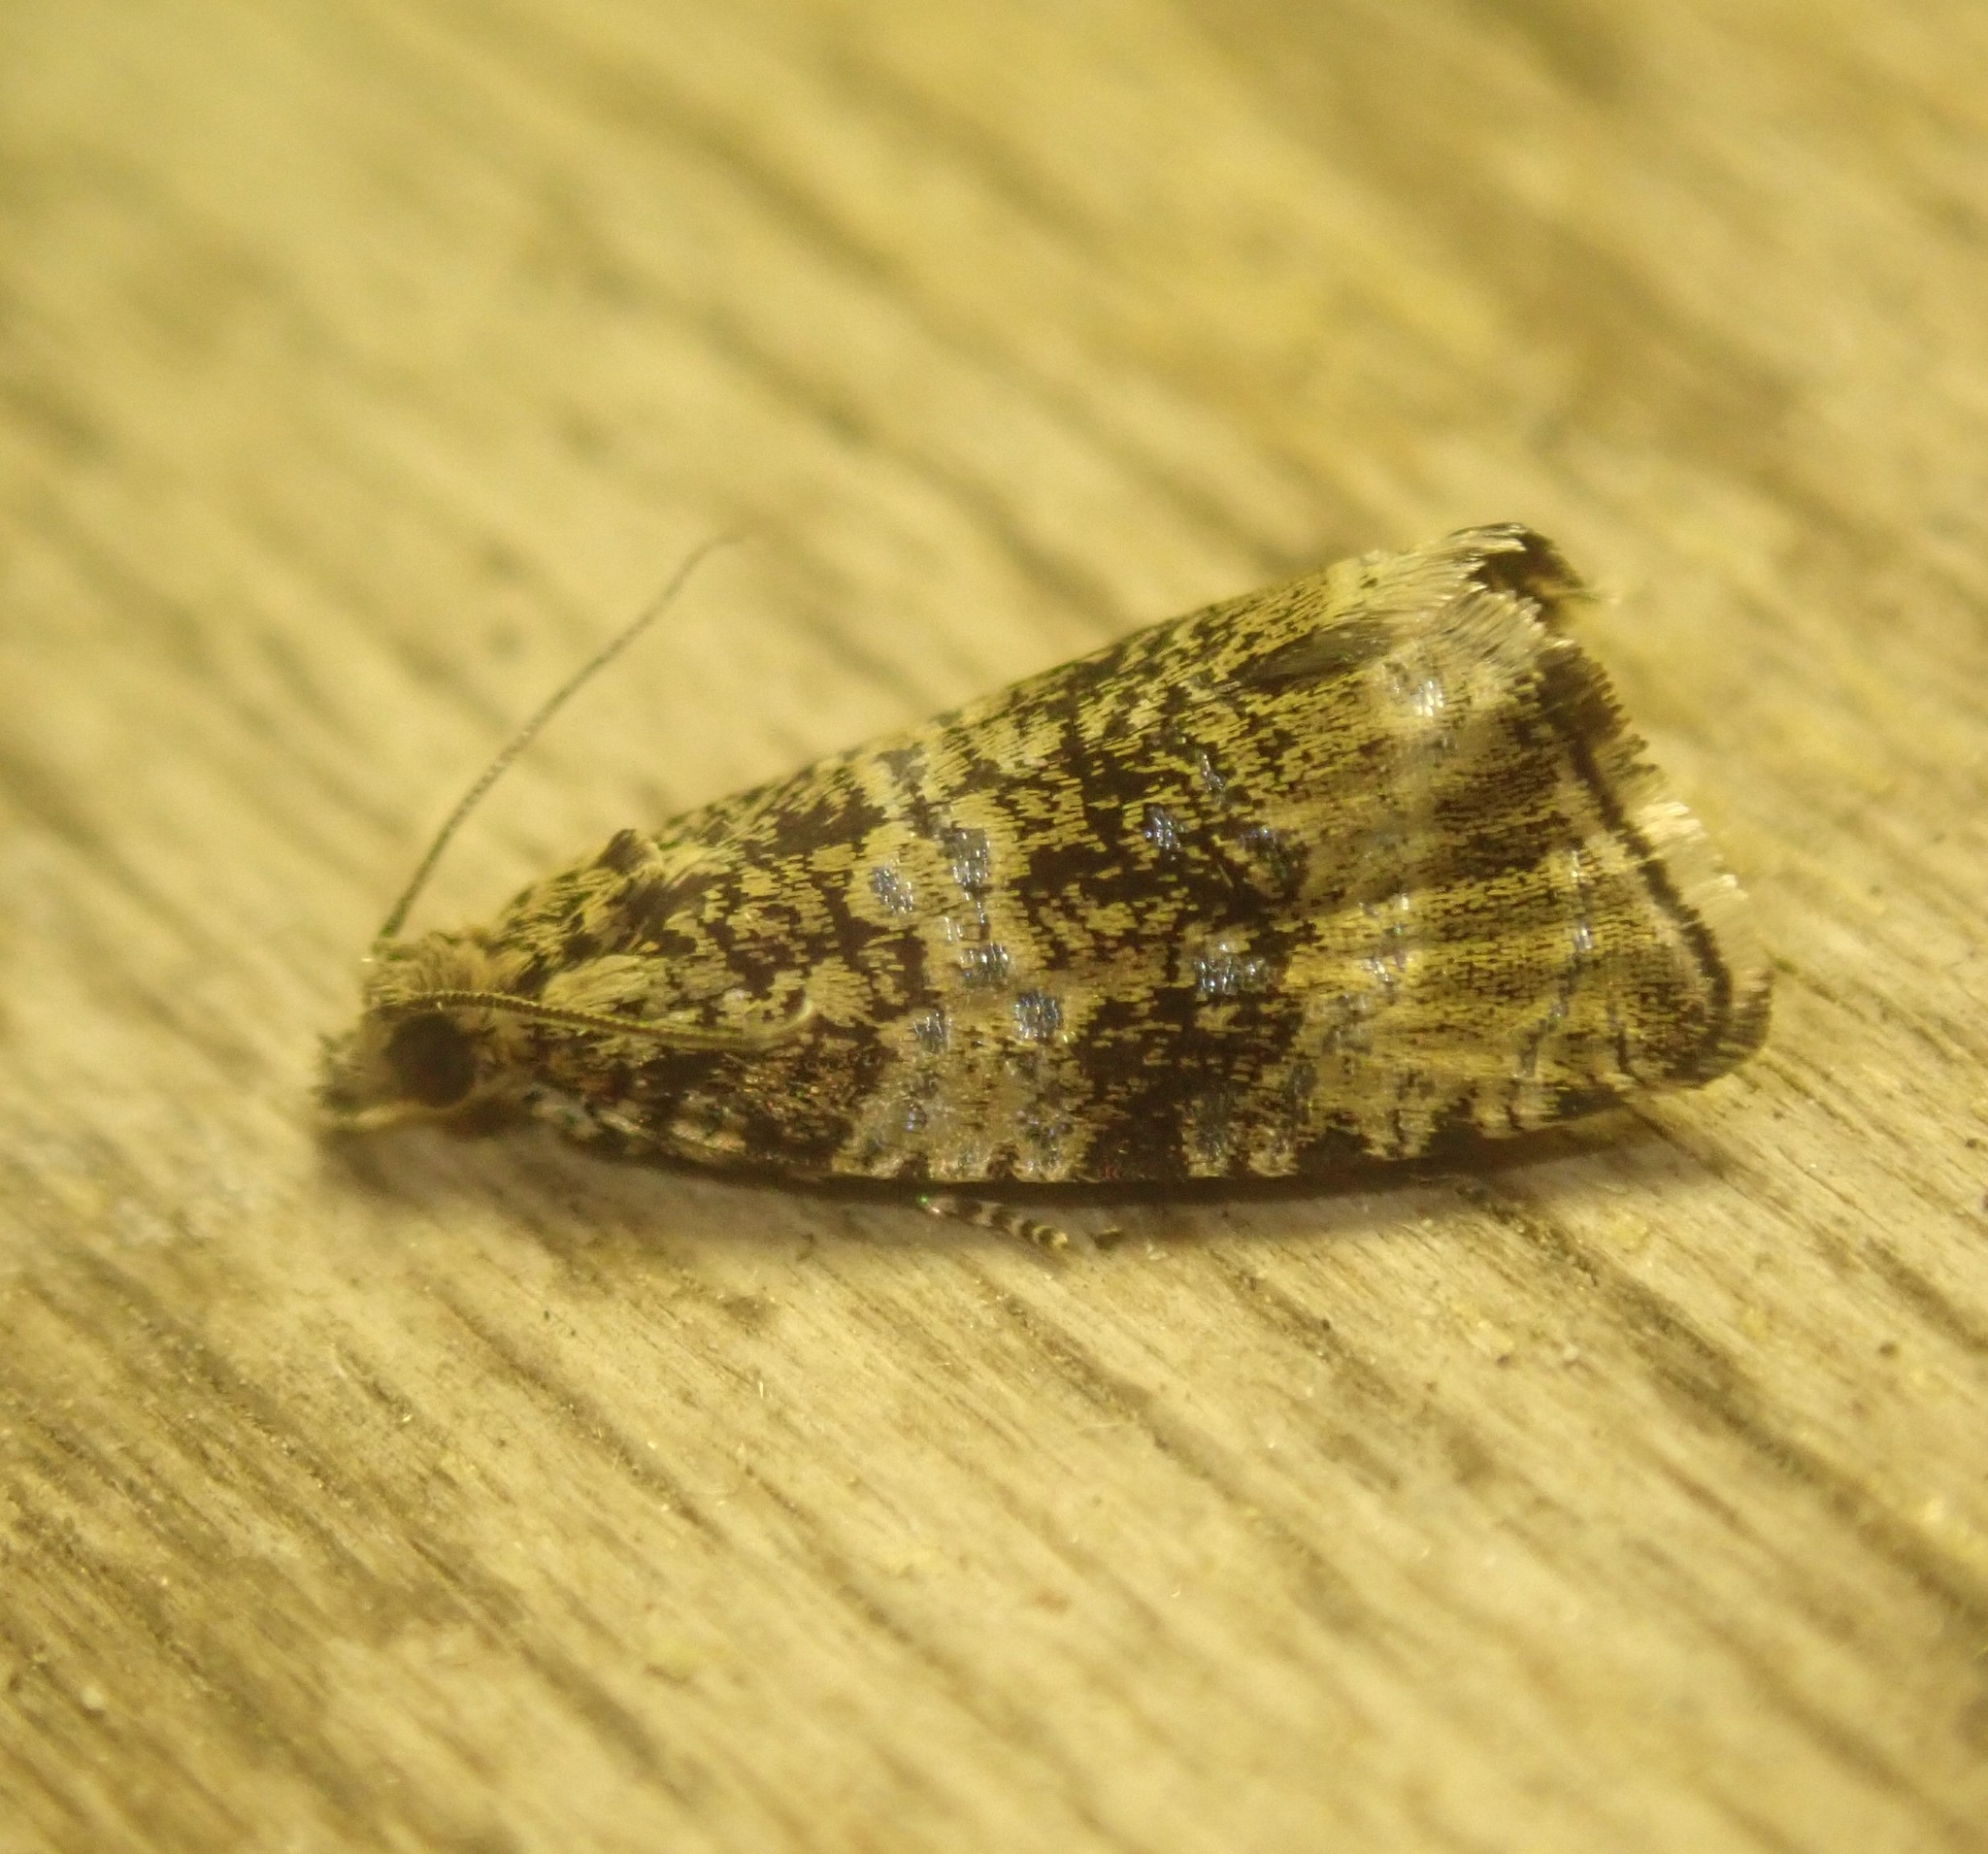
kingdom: Animalia
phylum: Arthropoda
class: Insecta
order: Lepidoptera
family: Tortricidae
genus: Syricoris
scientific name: Syricoris lacunana
